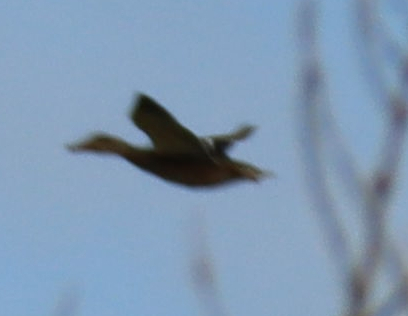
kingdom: Animalia
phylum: Chordata
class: Aves
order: Anseriformes
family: Anatidae
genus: Anas
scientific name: Anas platyrhynchos
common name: Mallard
